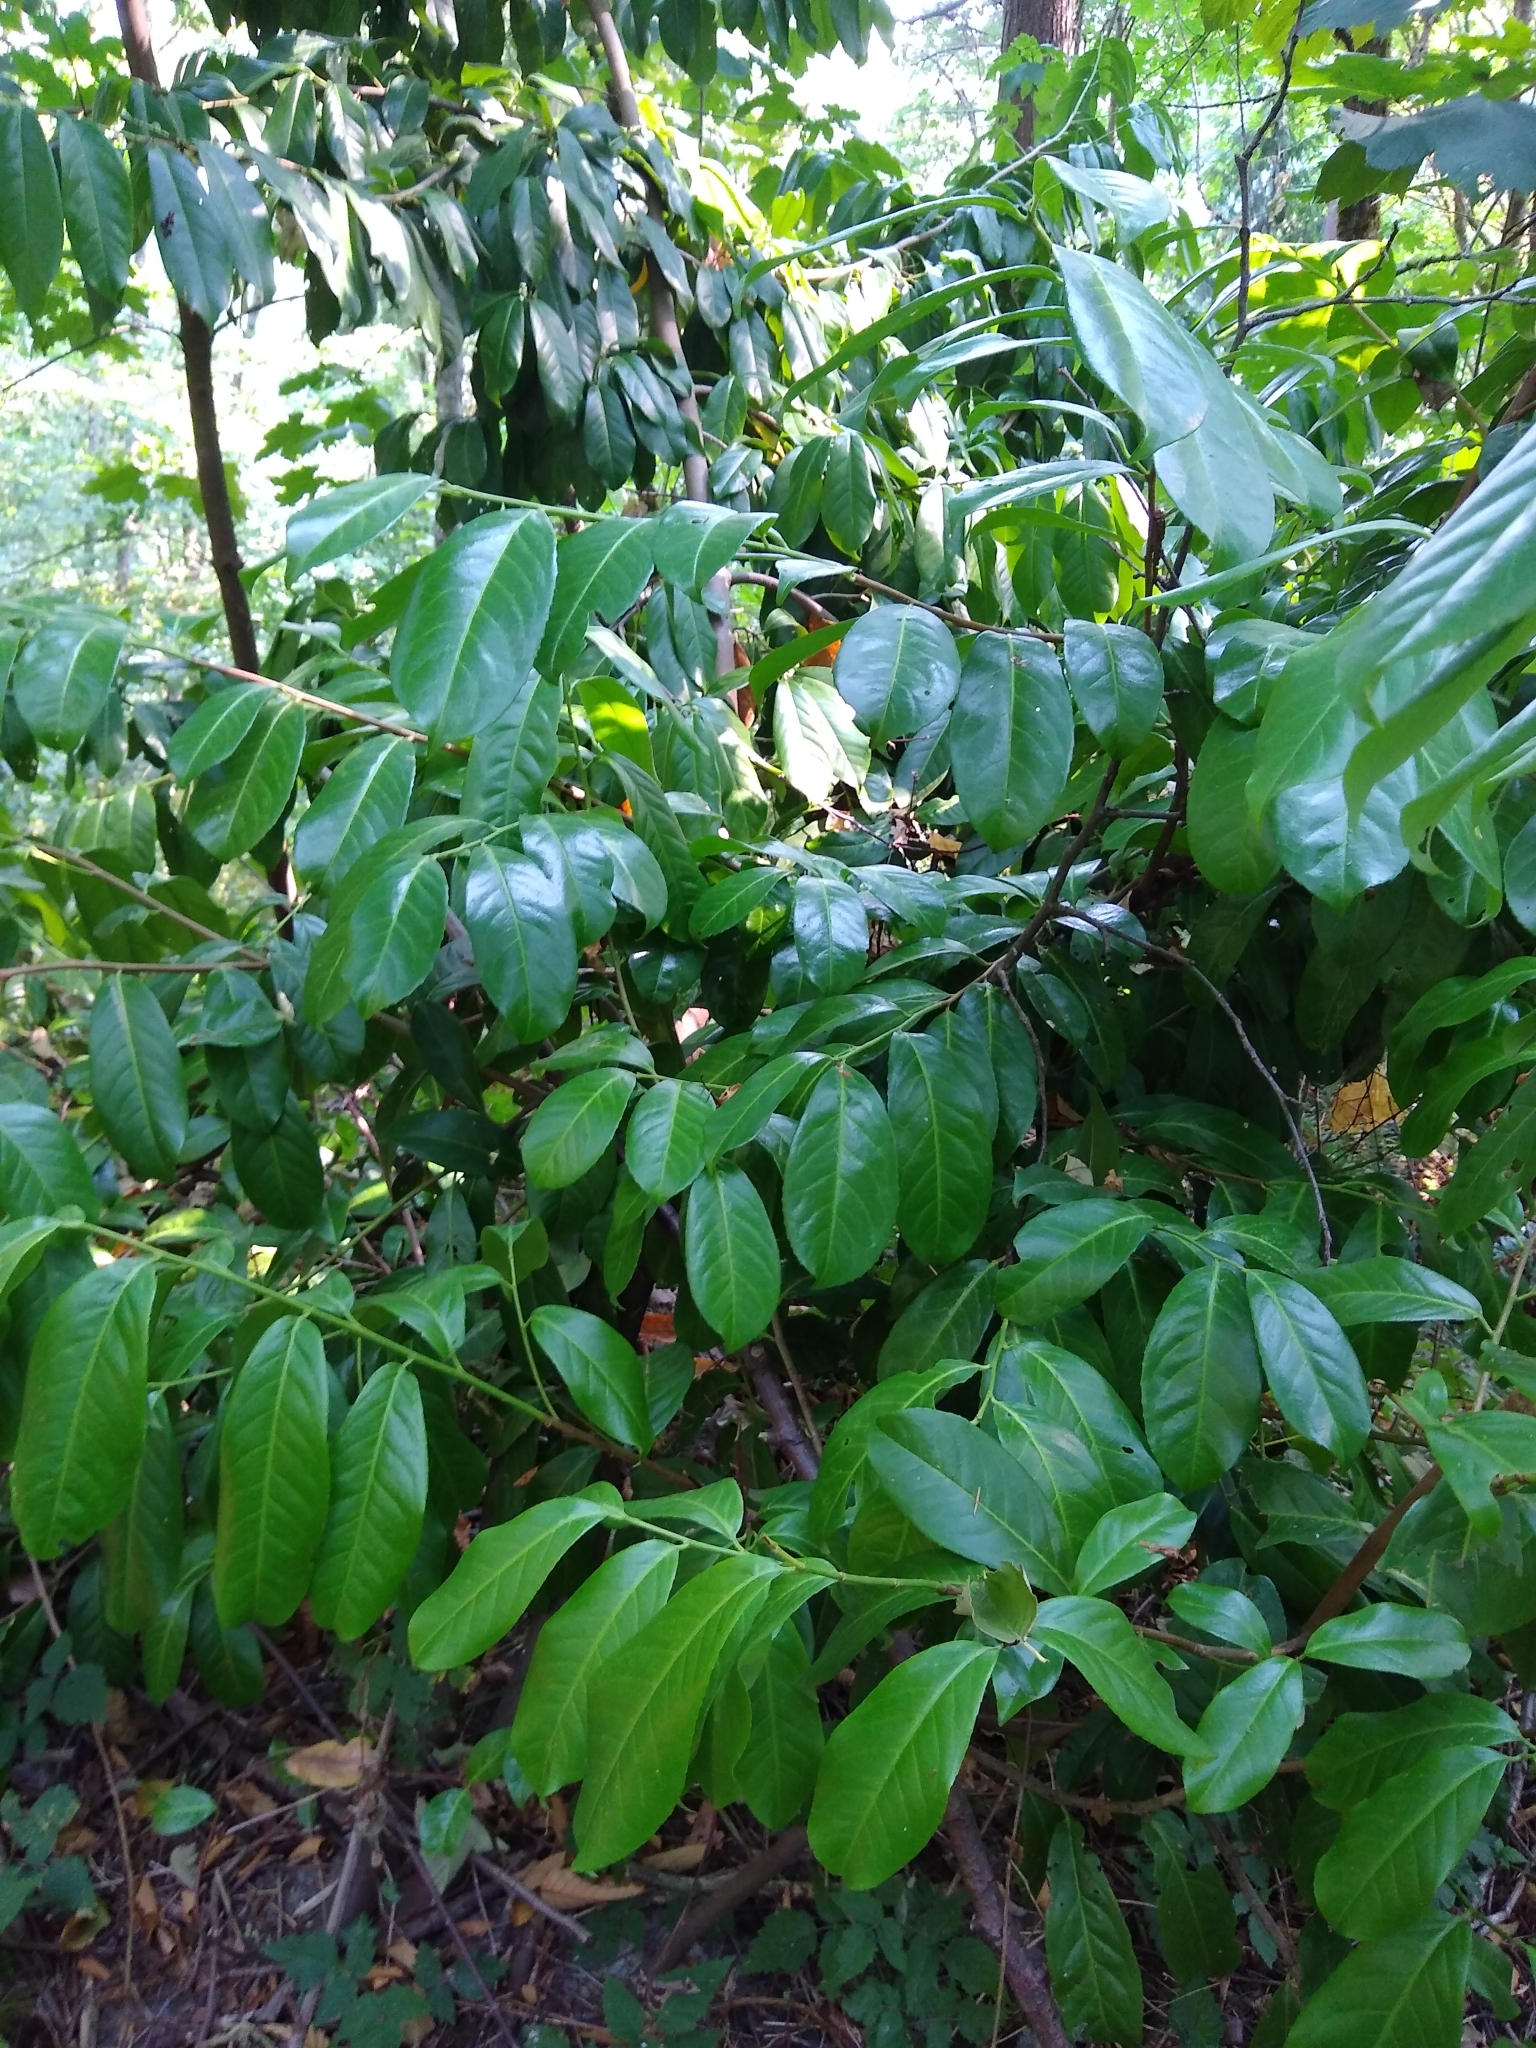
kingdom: Plantae
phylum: Tracheophyta
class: Magnoliopsida
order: Rosales
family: Rosaceae
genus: Prunus
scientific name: Prunus laurocerasus
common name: Cherry laurel
